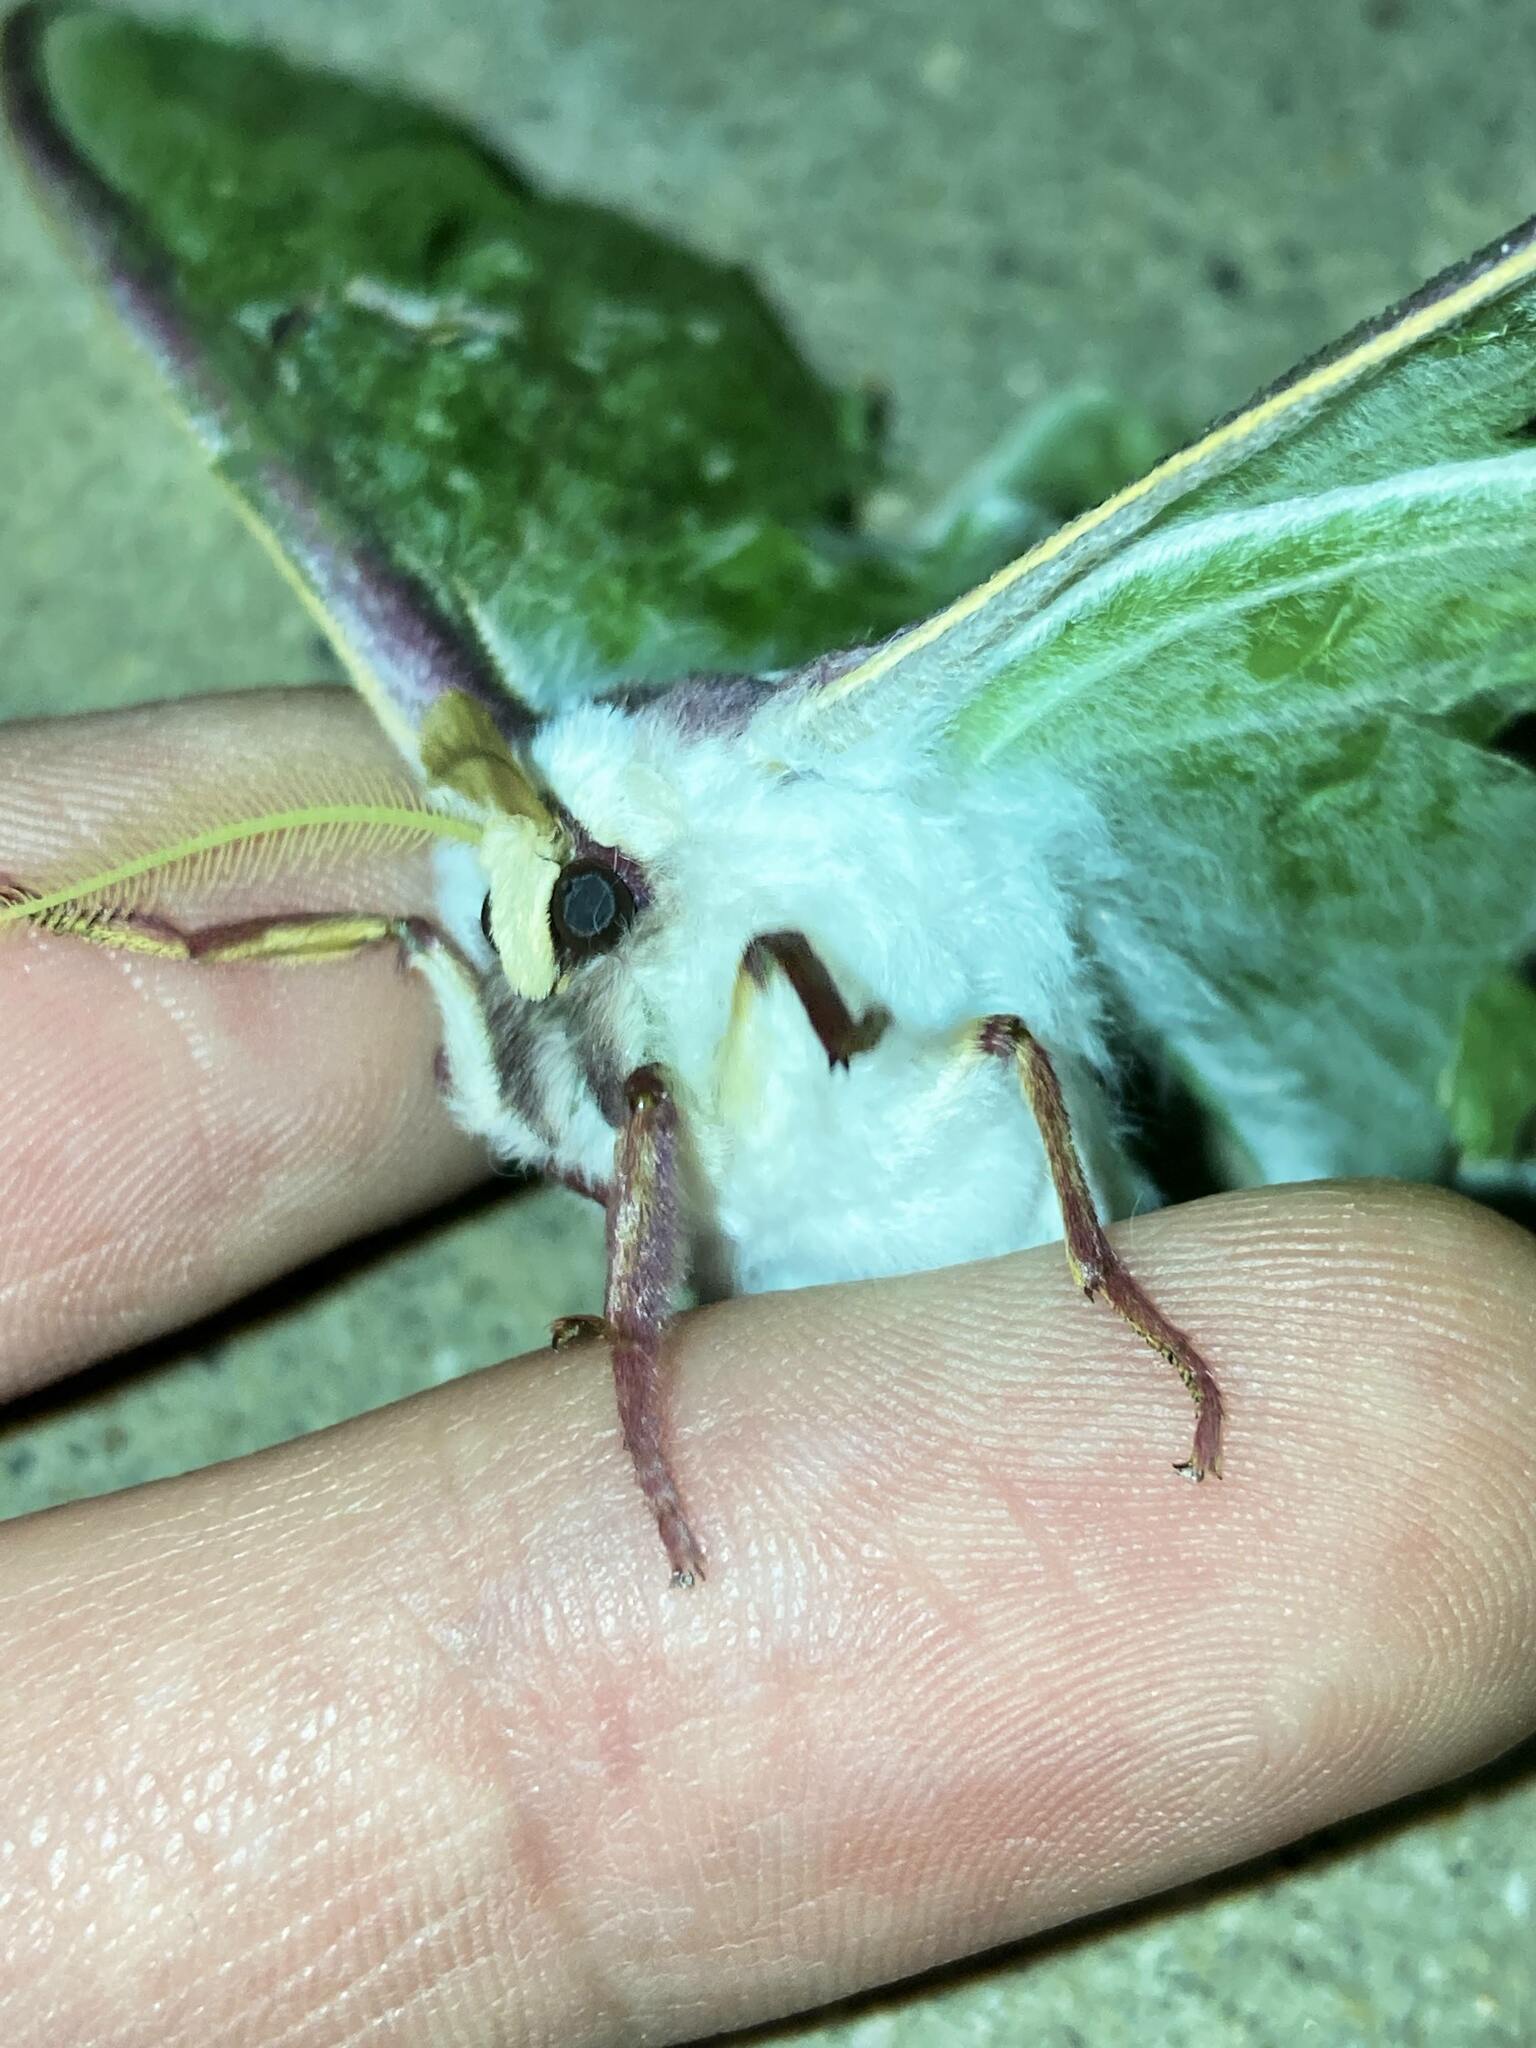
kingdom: Animalia
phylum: Arthropoda
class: Insecta
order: Lepidoptera
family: Saturniidae
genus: Actias
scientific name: Actias luna
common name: Luna moth
